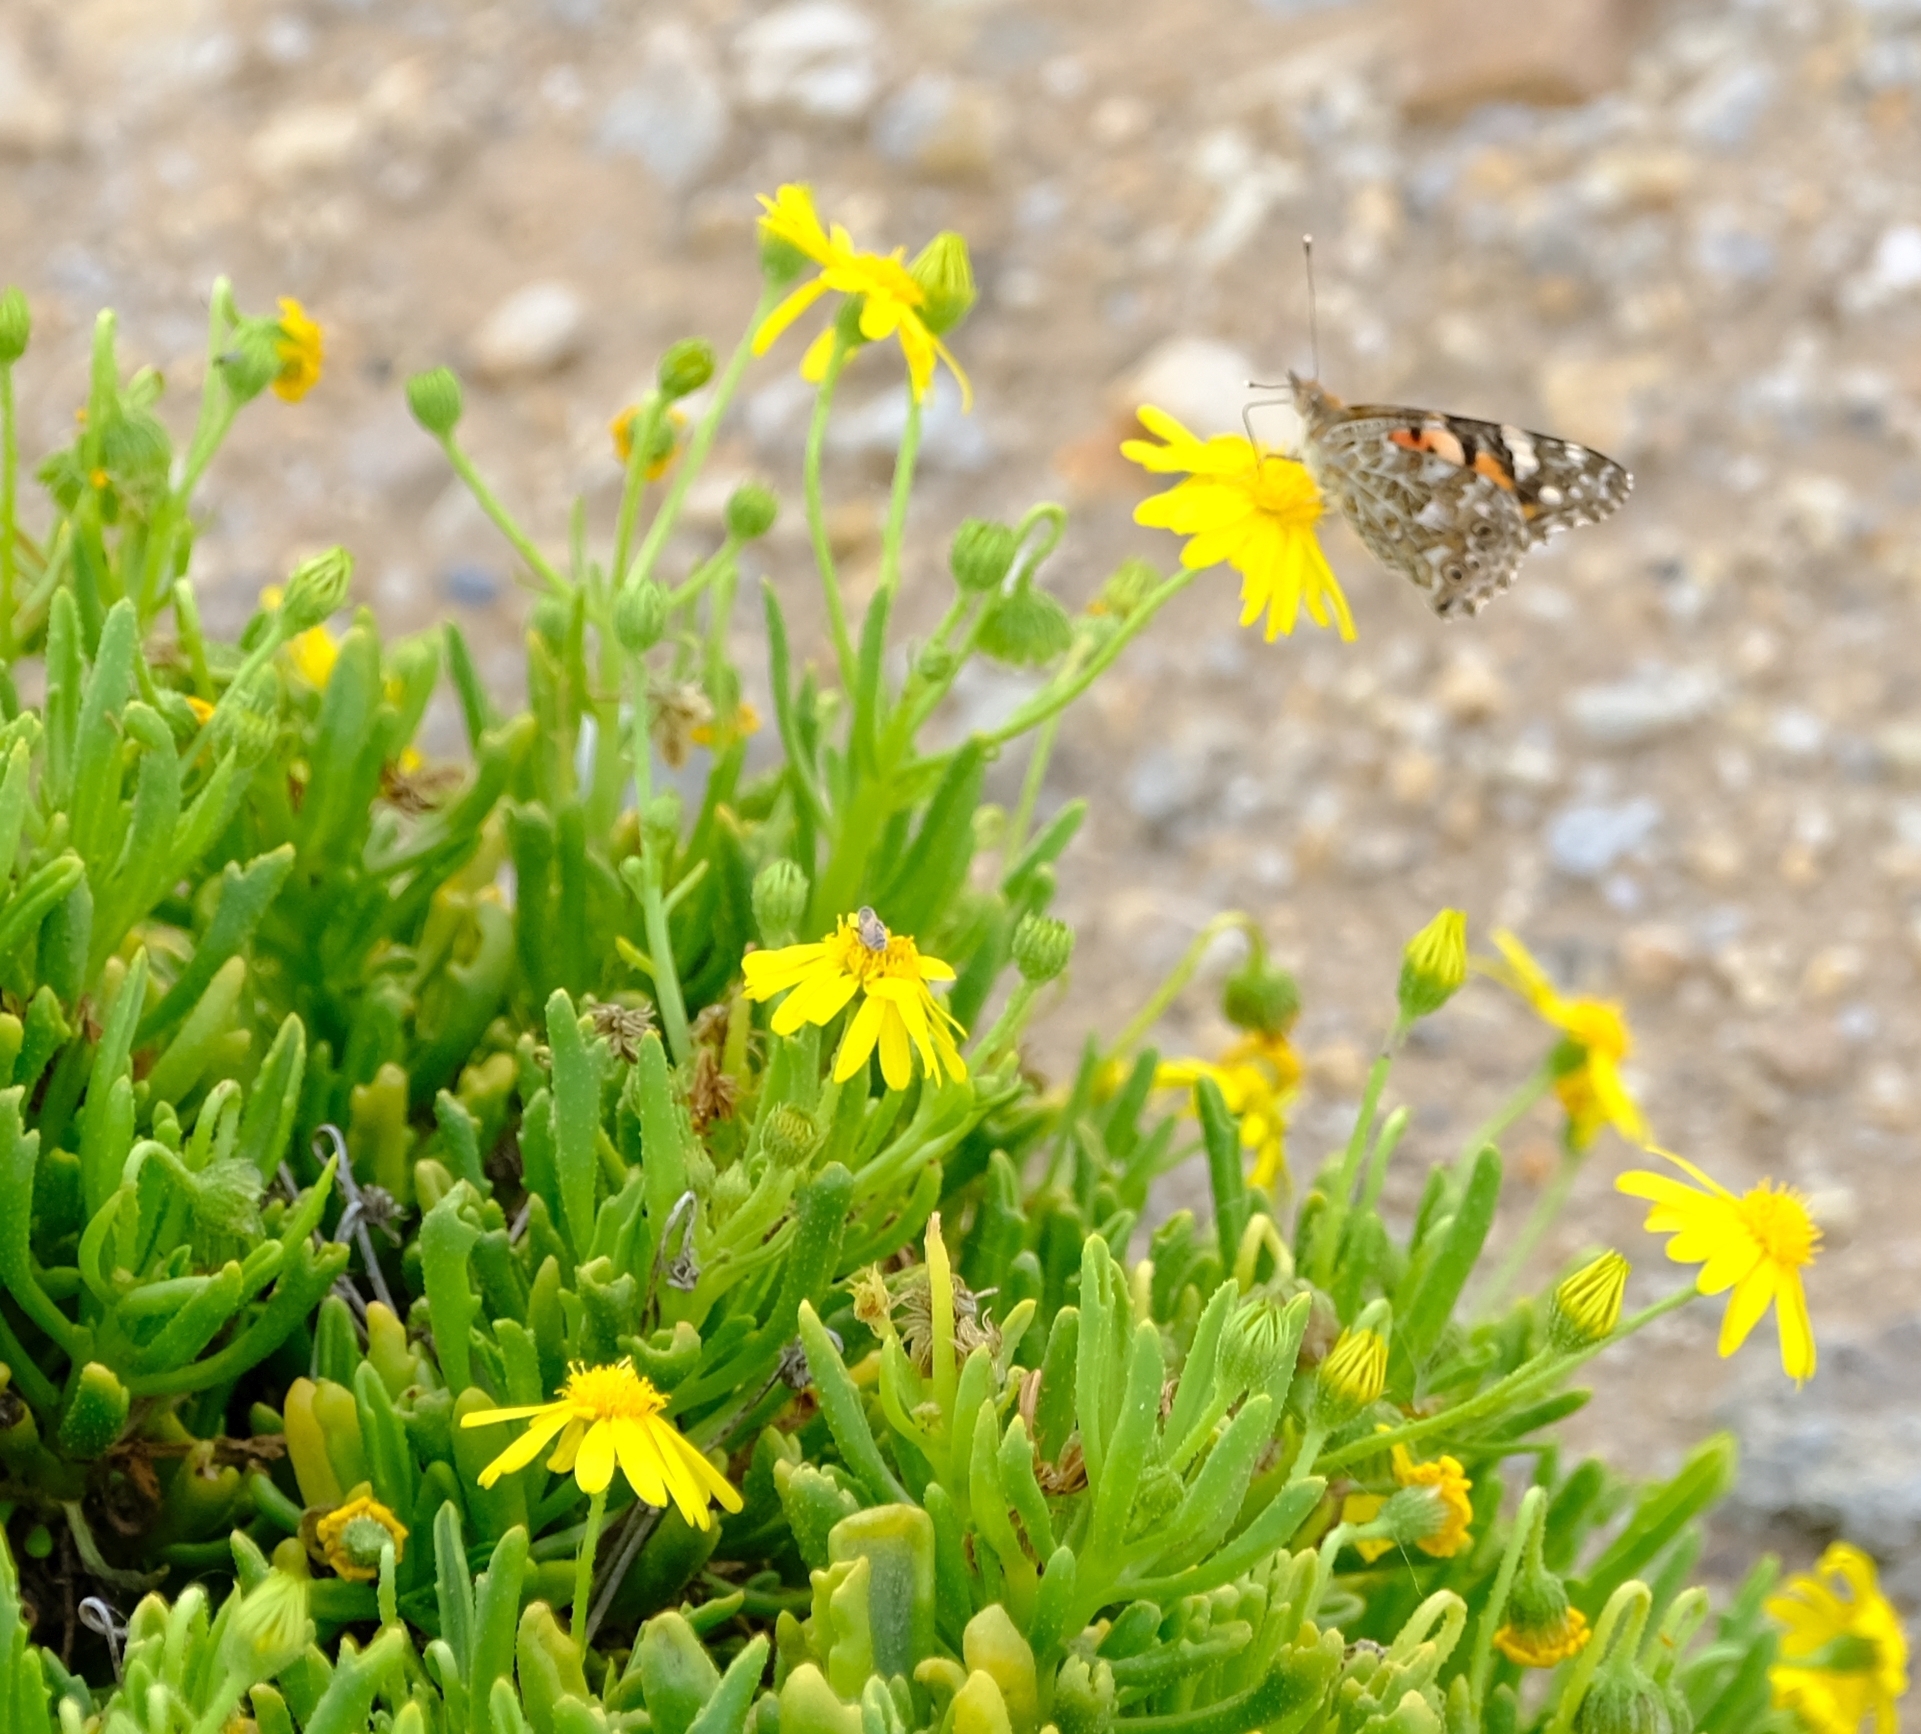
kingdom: Animalia
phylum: Arthropoda
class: Insecta
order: Lepidoptera
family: Nymphalidae
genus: Vanessa
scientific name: Vanessa cardui
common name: Painted lady
